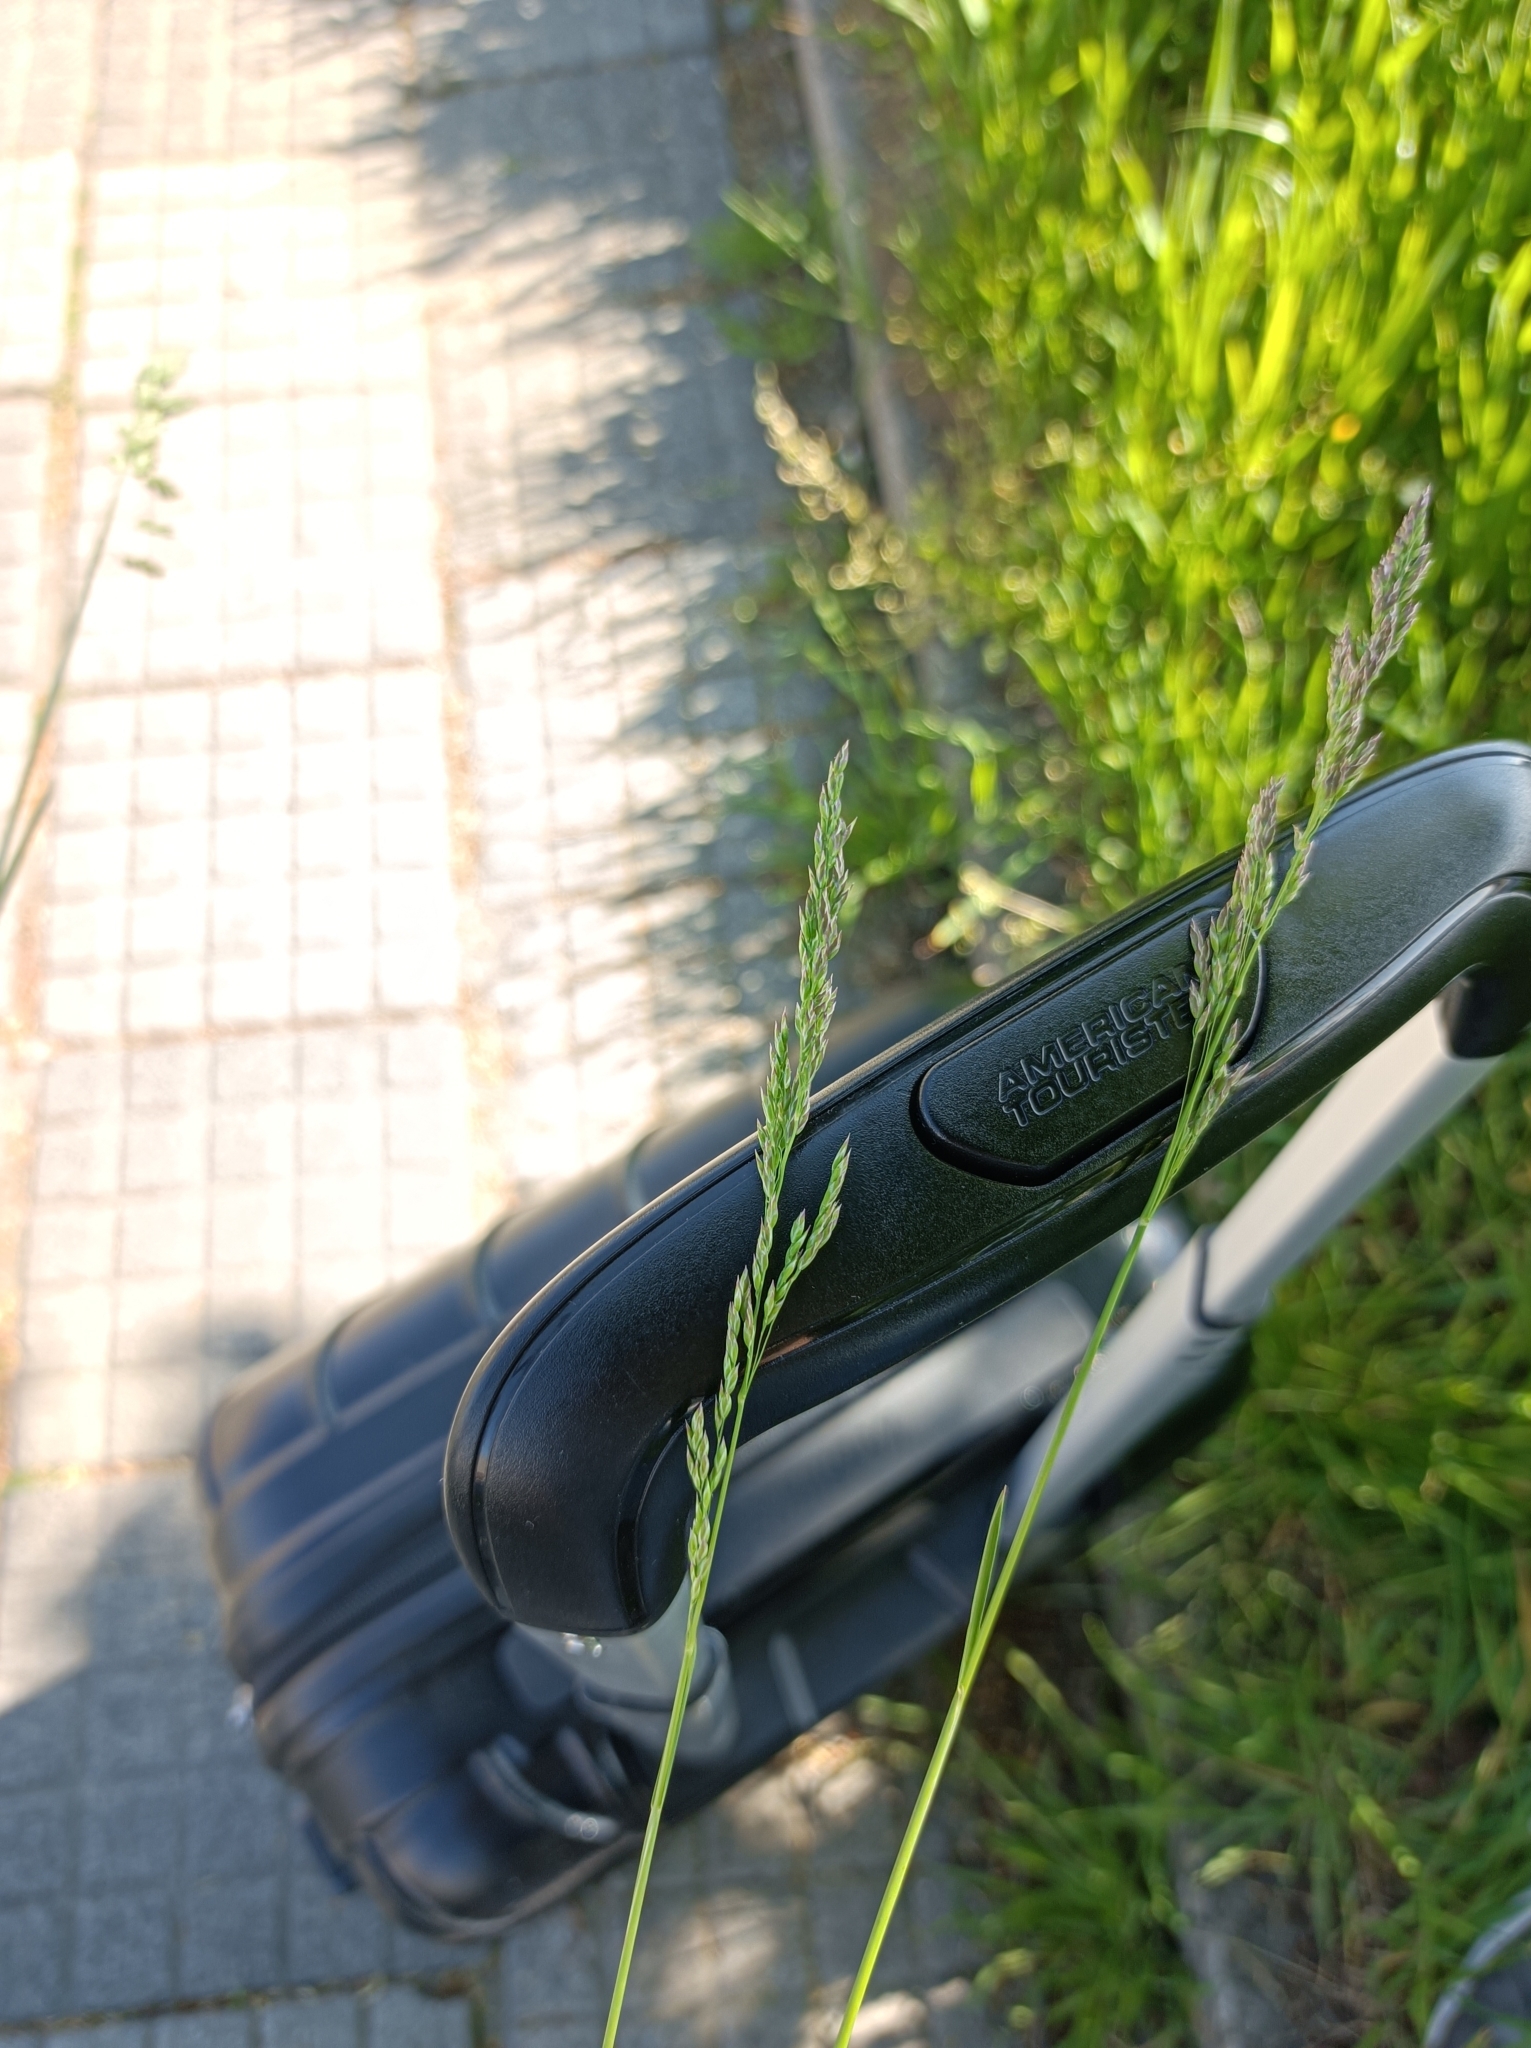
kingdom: Plantae
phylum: Tracheophyta
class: Liliopsida
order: Poales
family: Poaceae
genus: Poa
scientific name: Poa angustifolia
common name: Narrow-leaved meadow-grass
